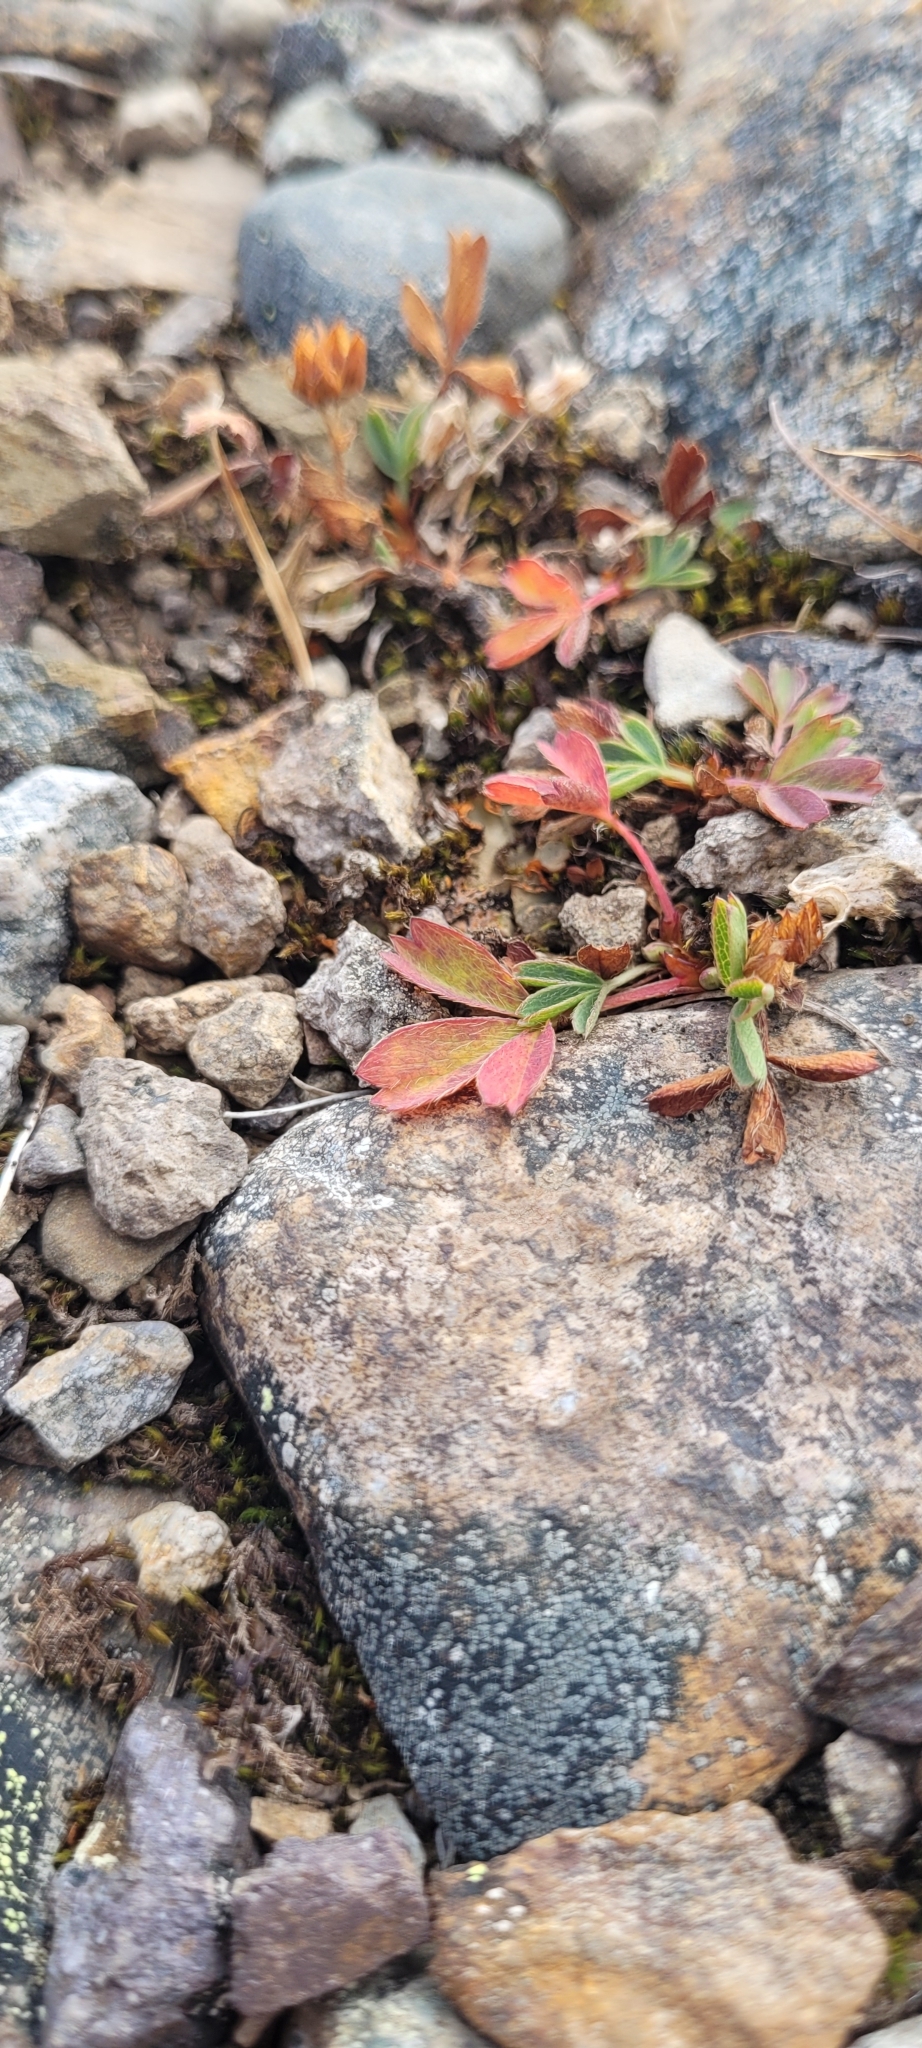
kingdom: Plantae
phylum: Tracheophyta
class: Magnoliopsida
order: Rosales
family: Rosaceae
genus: Sibbaldia
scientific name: Sibbaldia procumbens
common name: Creeping sibbaldia
